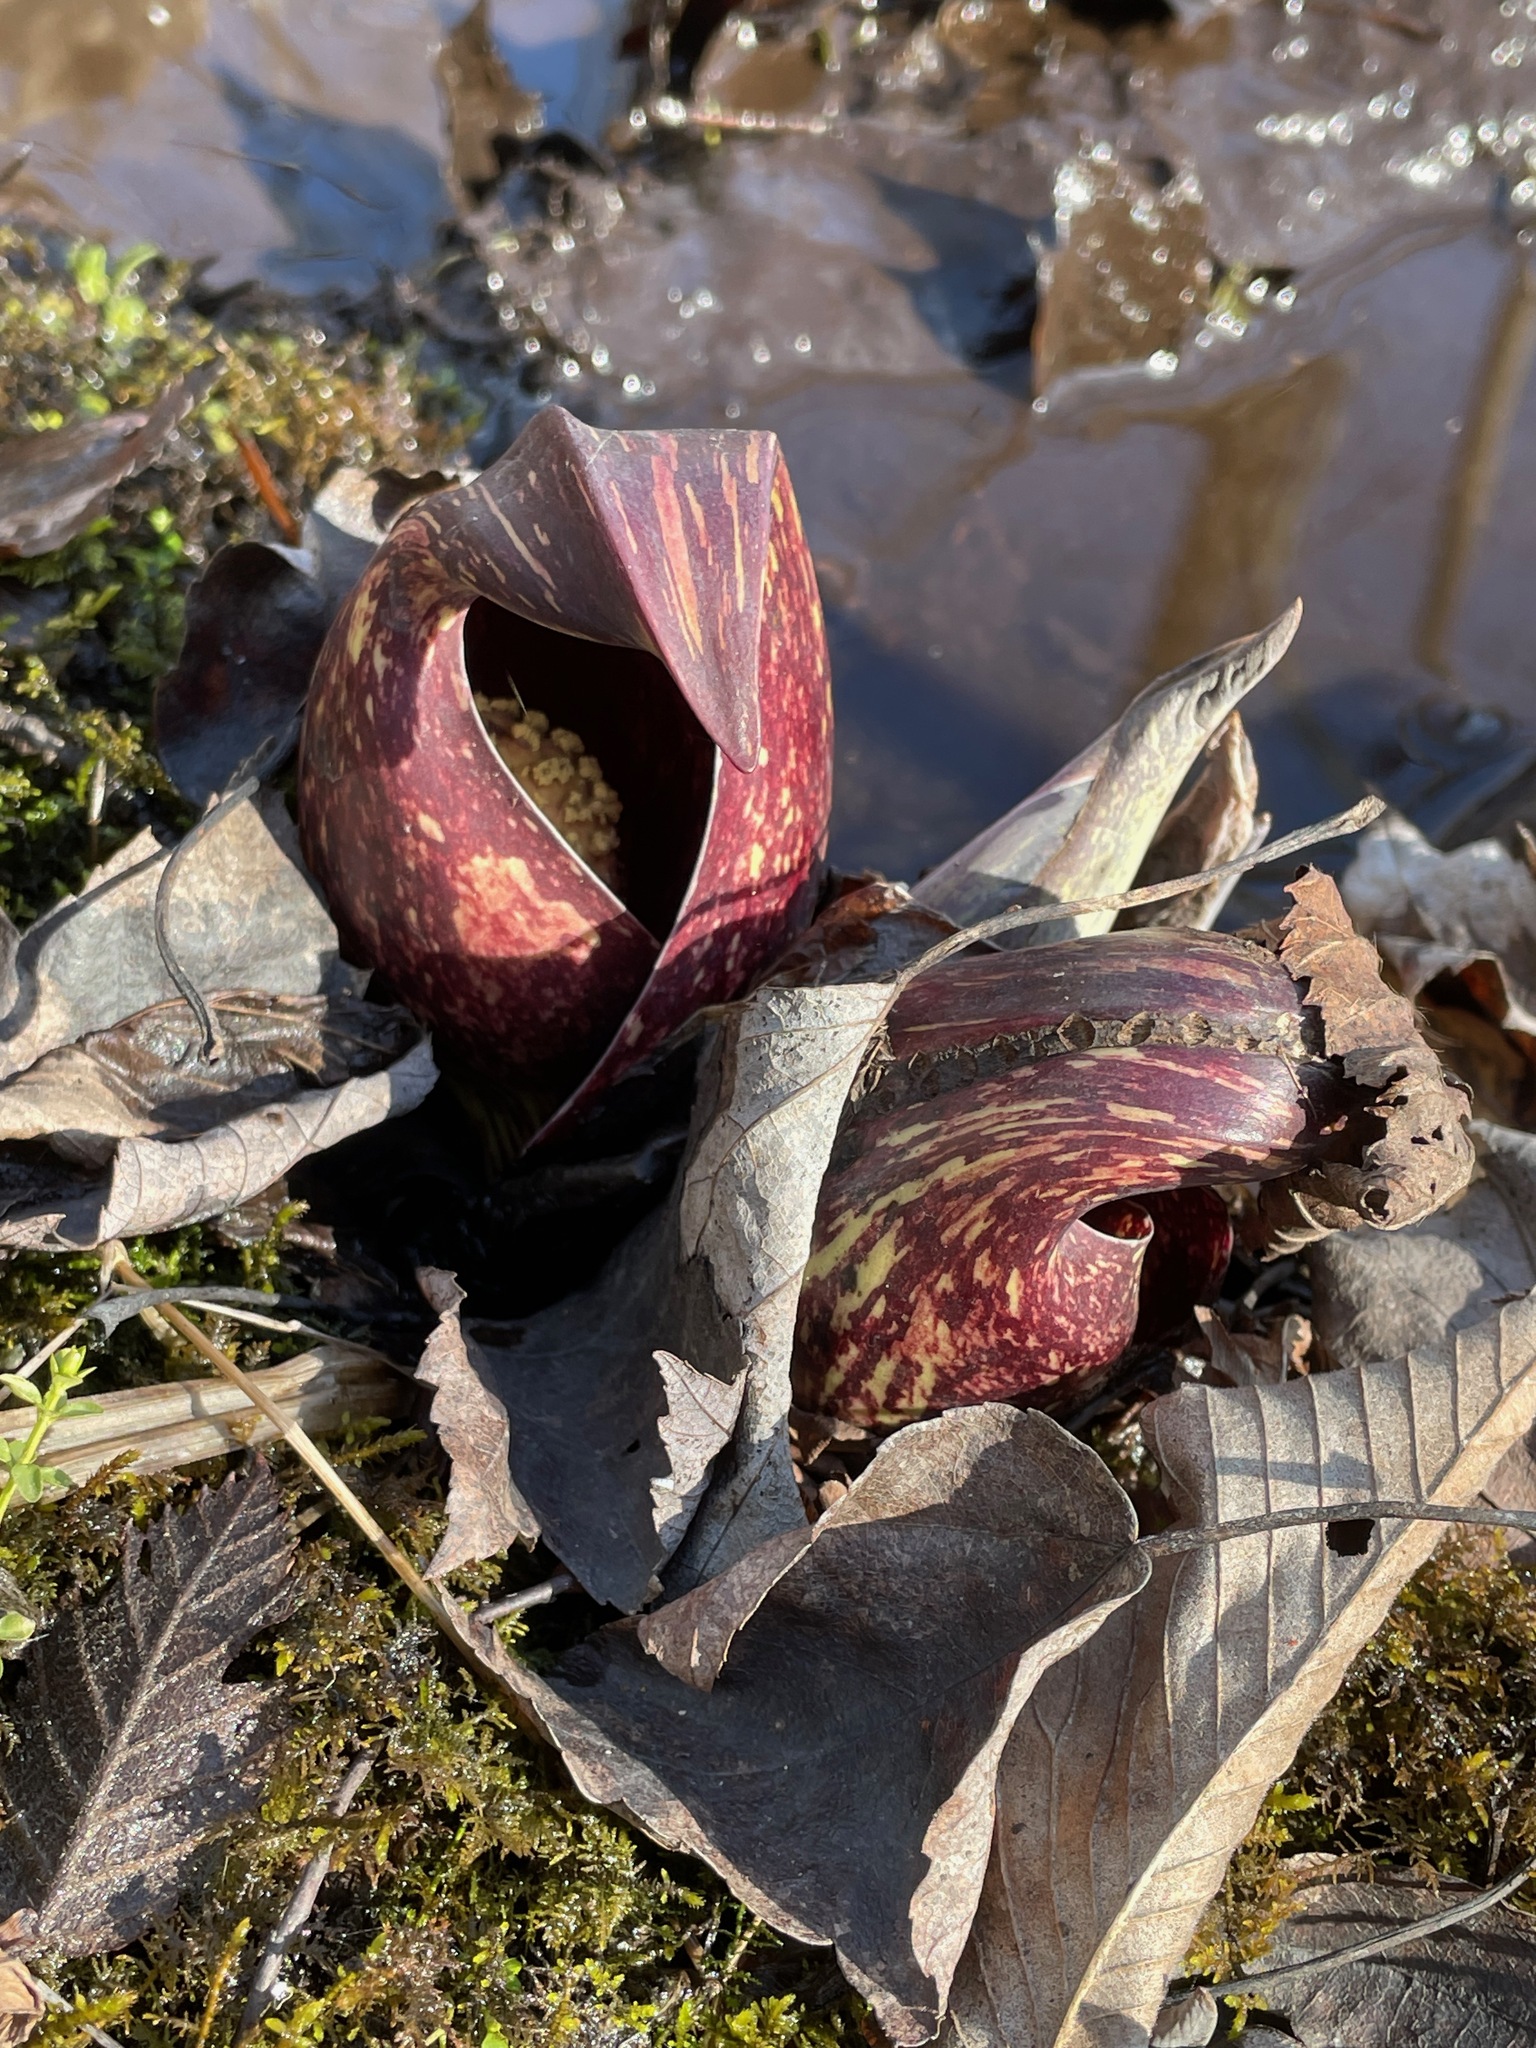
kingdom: Plantae
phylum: Tracheophyta
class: Liliopsida
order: Alismatales
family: Araceae
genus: Symplocarpus
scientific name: Symplocarpus foetidus
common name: Eastern skunk cabbage
